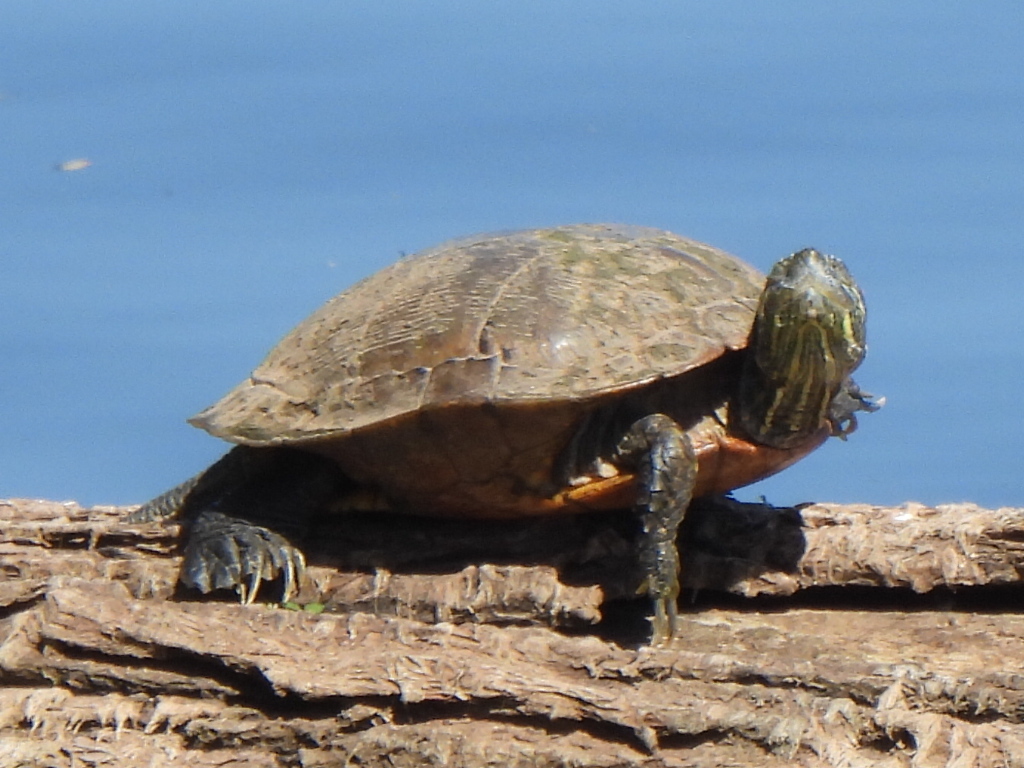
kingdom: Animalia
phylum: Chordata
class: Testudines
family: Emydidae
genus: Trachemys
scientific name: Trachemys scripta
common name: Slider
